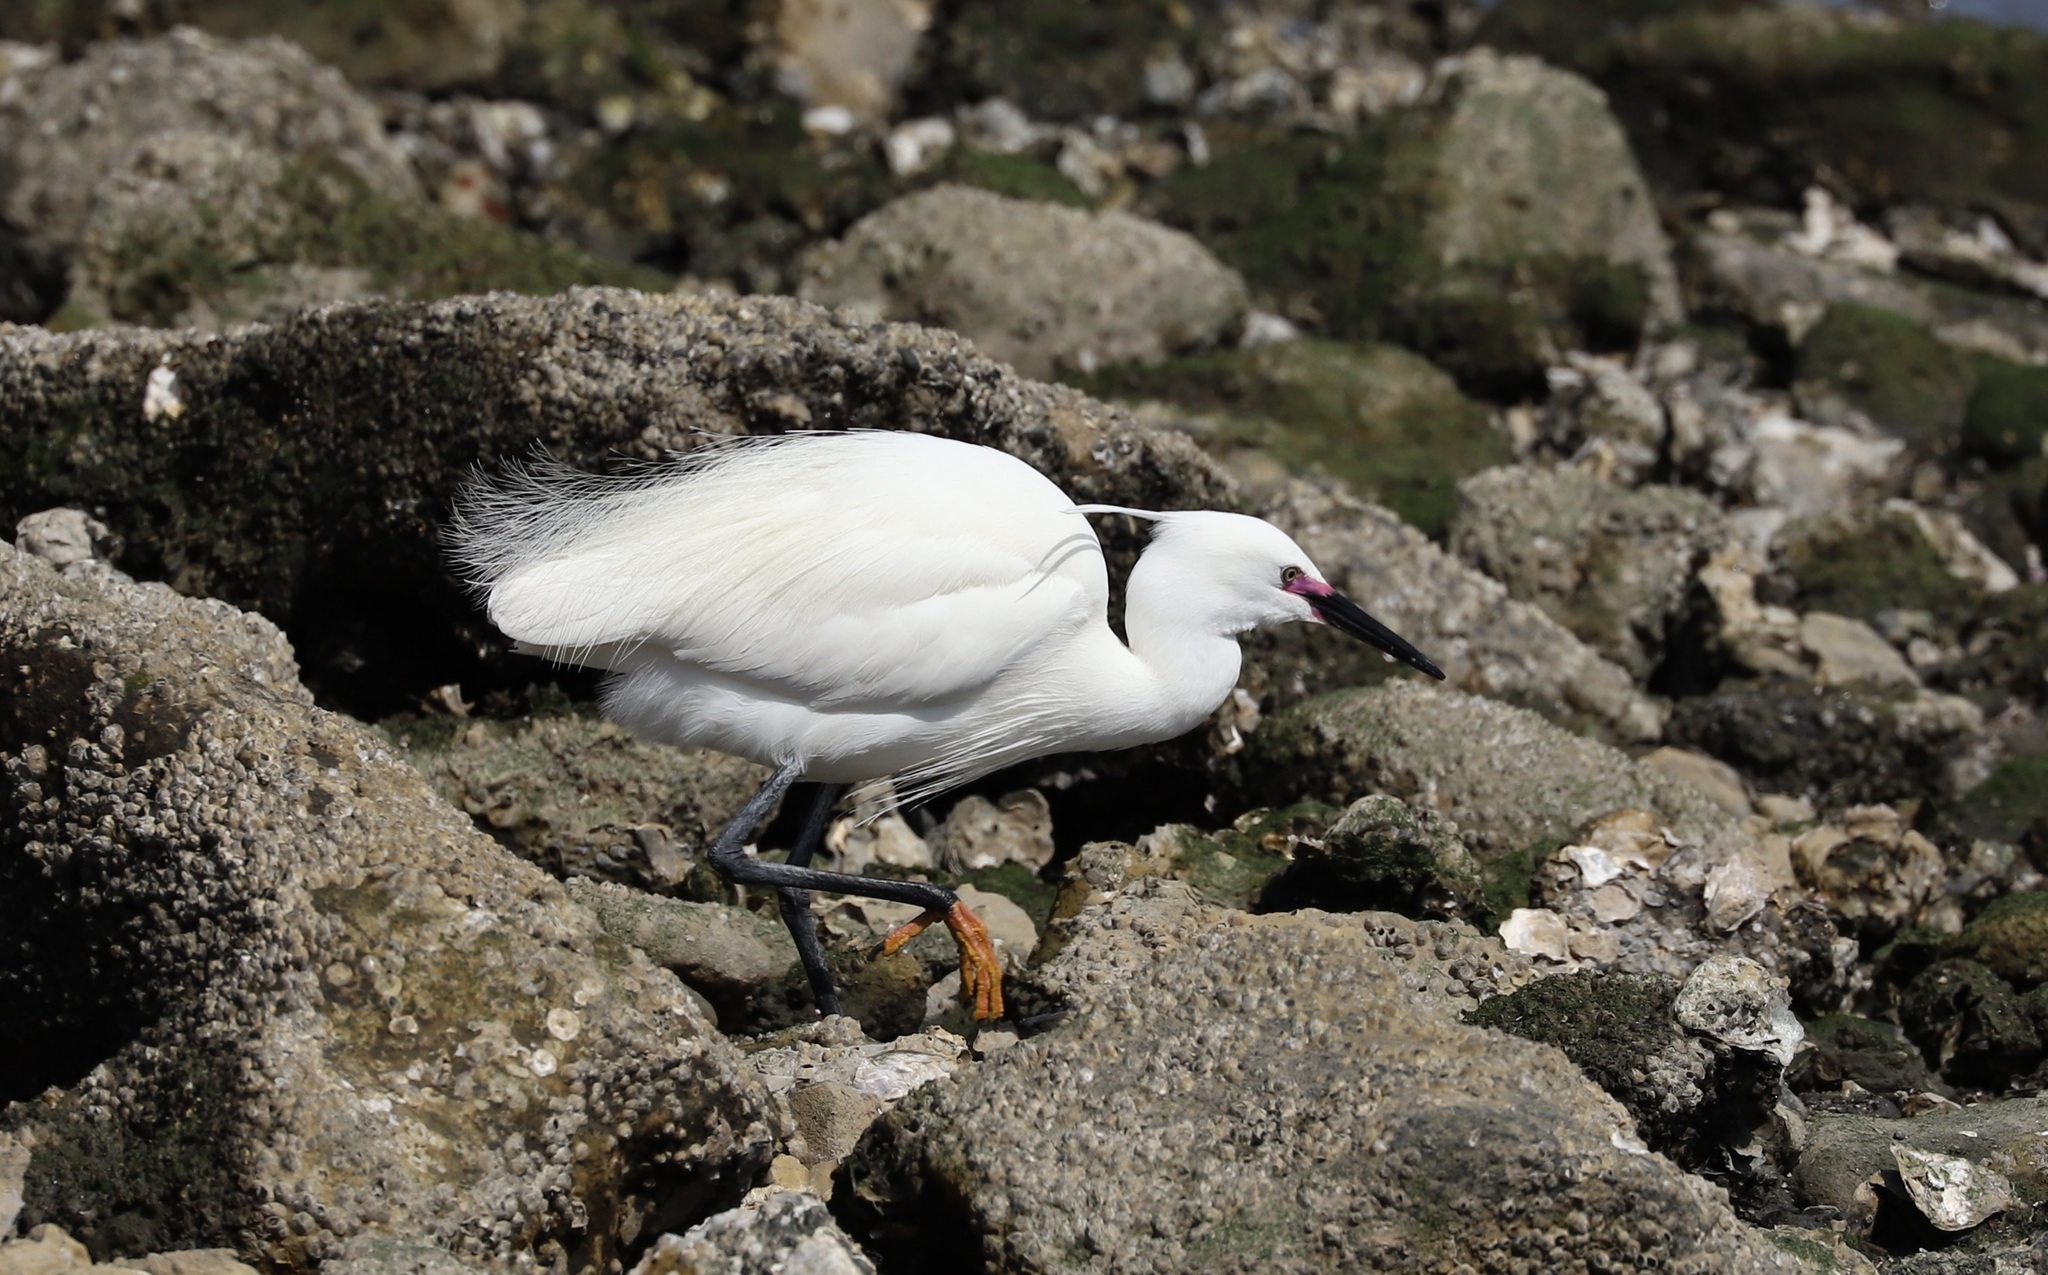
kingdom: Animalia
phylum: Chordata
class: Aves
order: Pelecaniformes
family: Ardeidae
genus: Egretta
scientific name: Egretta garzetta
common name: Little egret
